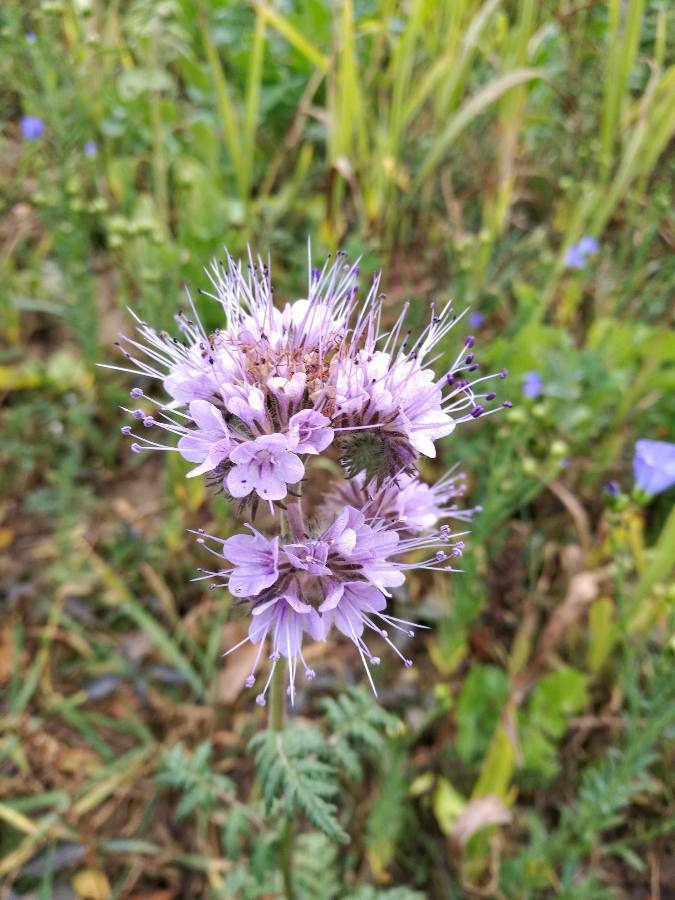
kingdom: Plantae
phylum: Tracheophyta
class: Magnoliopsida
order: Boraginales
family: Hydrophyllaceae
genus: Phacelia
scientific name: Phacelia tanacetifolia
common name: Phacelia
